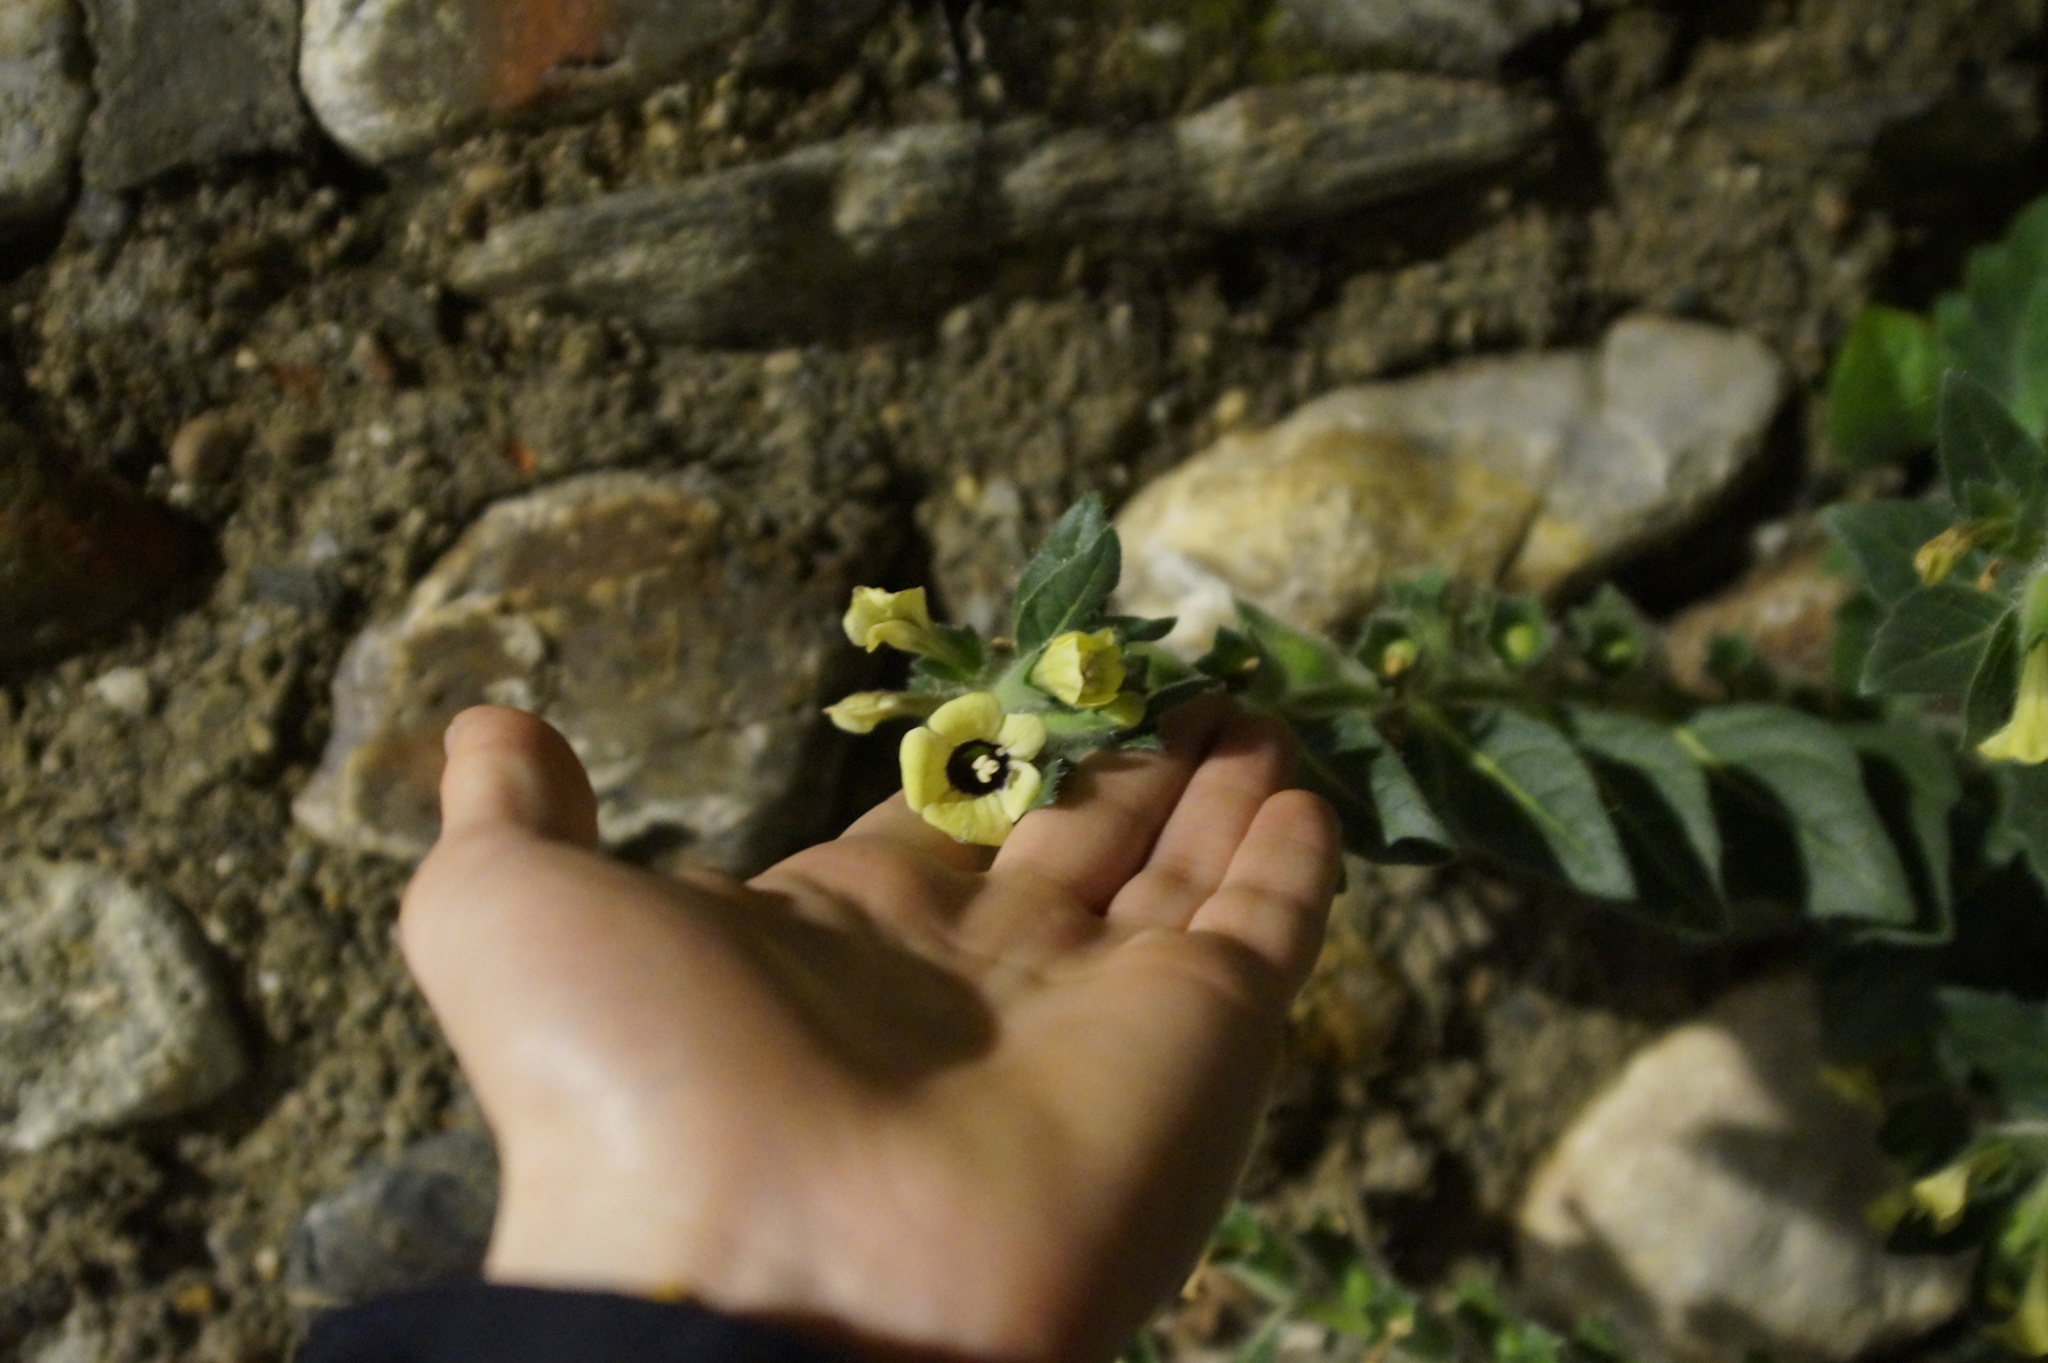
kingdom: Plantae
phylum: Tracheophyta
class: Magnoliopsida
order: Solanales
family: Solanaceae
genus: Hyoscyamus
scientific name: Hyoscyamus albus
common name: White henbane
